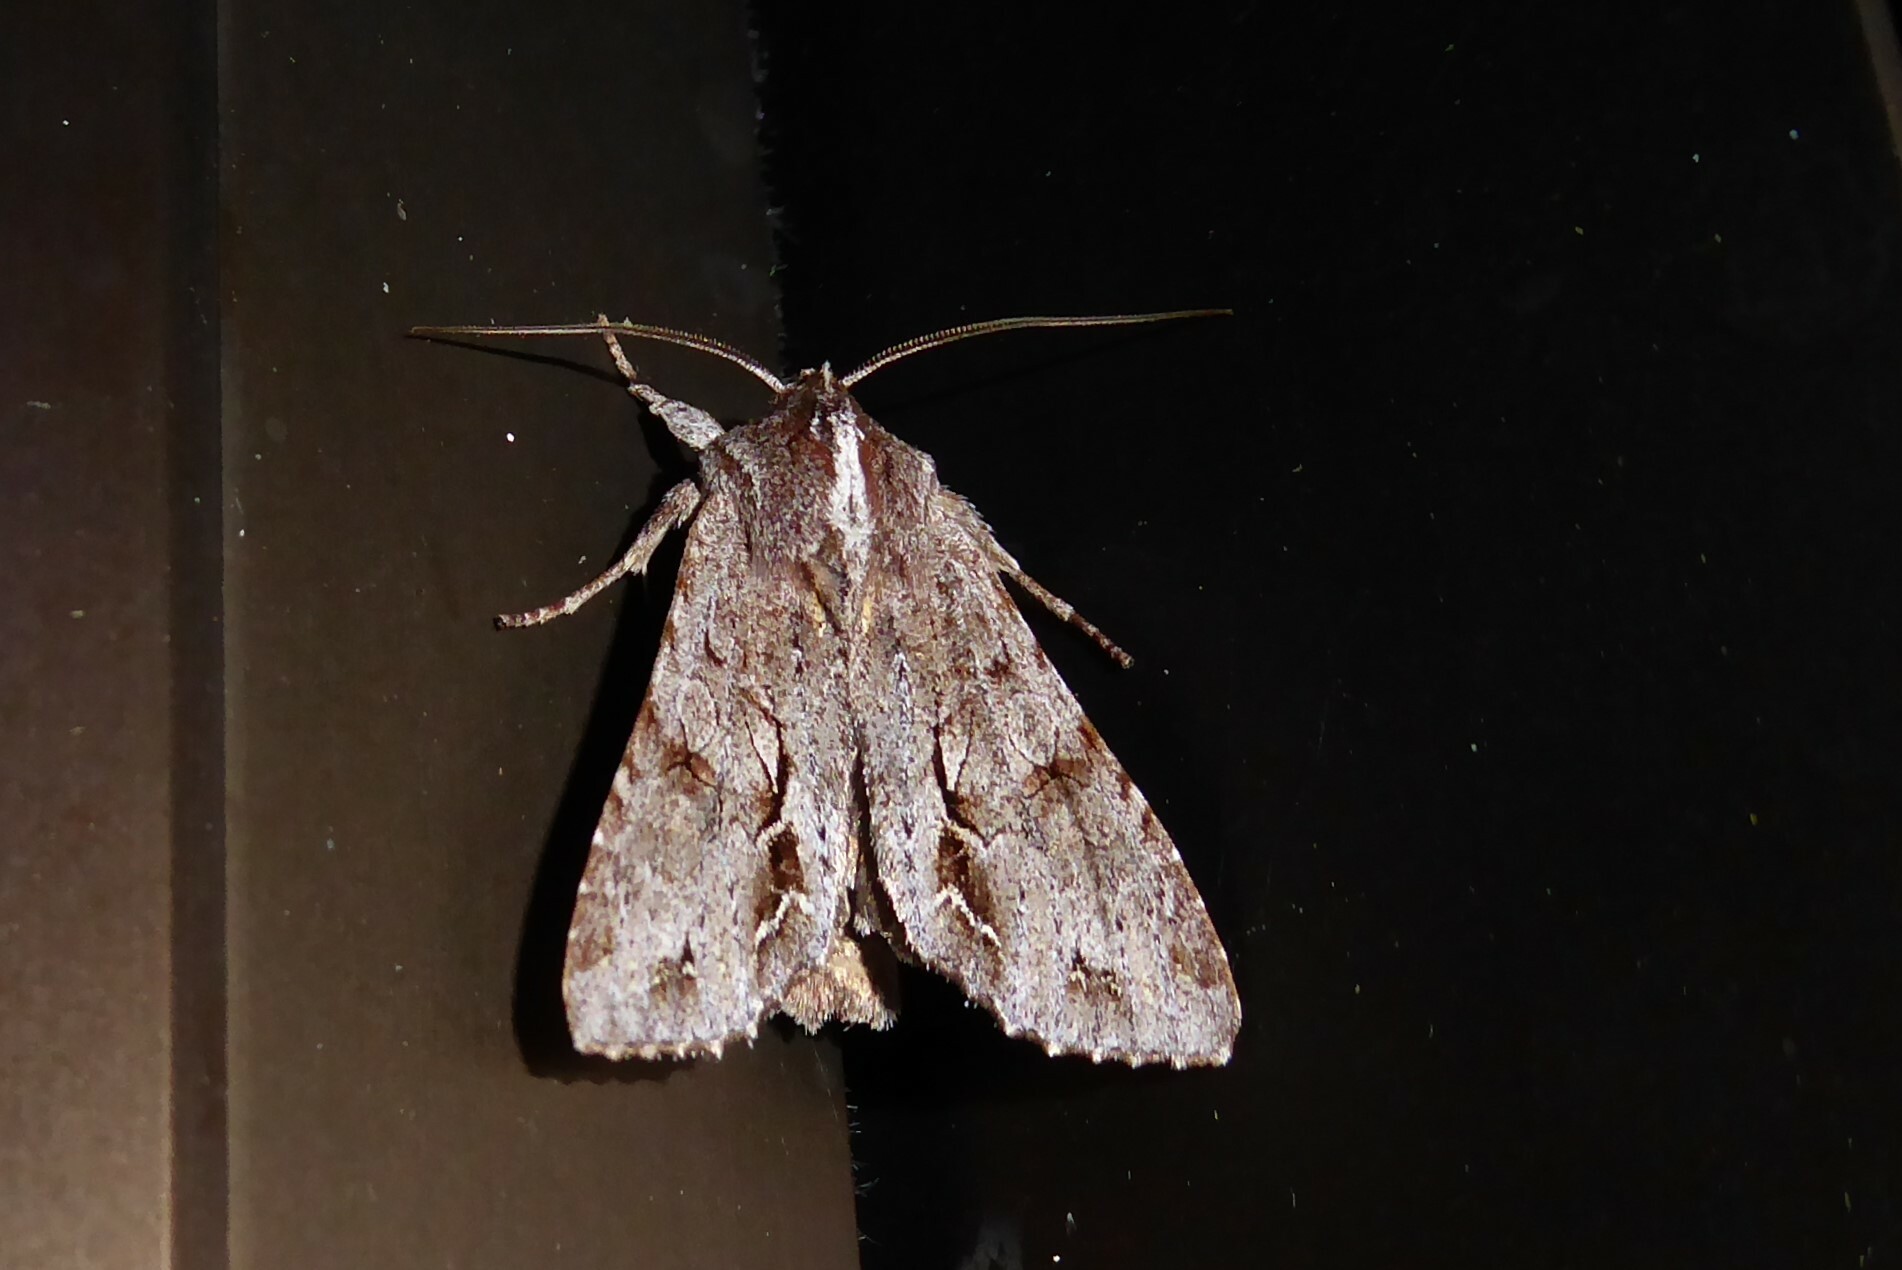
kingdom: Animalia
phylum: Arthropoda
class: Insecta
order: Lepidoptera
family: Noctuidae
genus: Ichneutica
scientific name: Ichneutica
